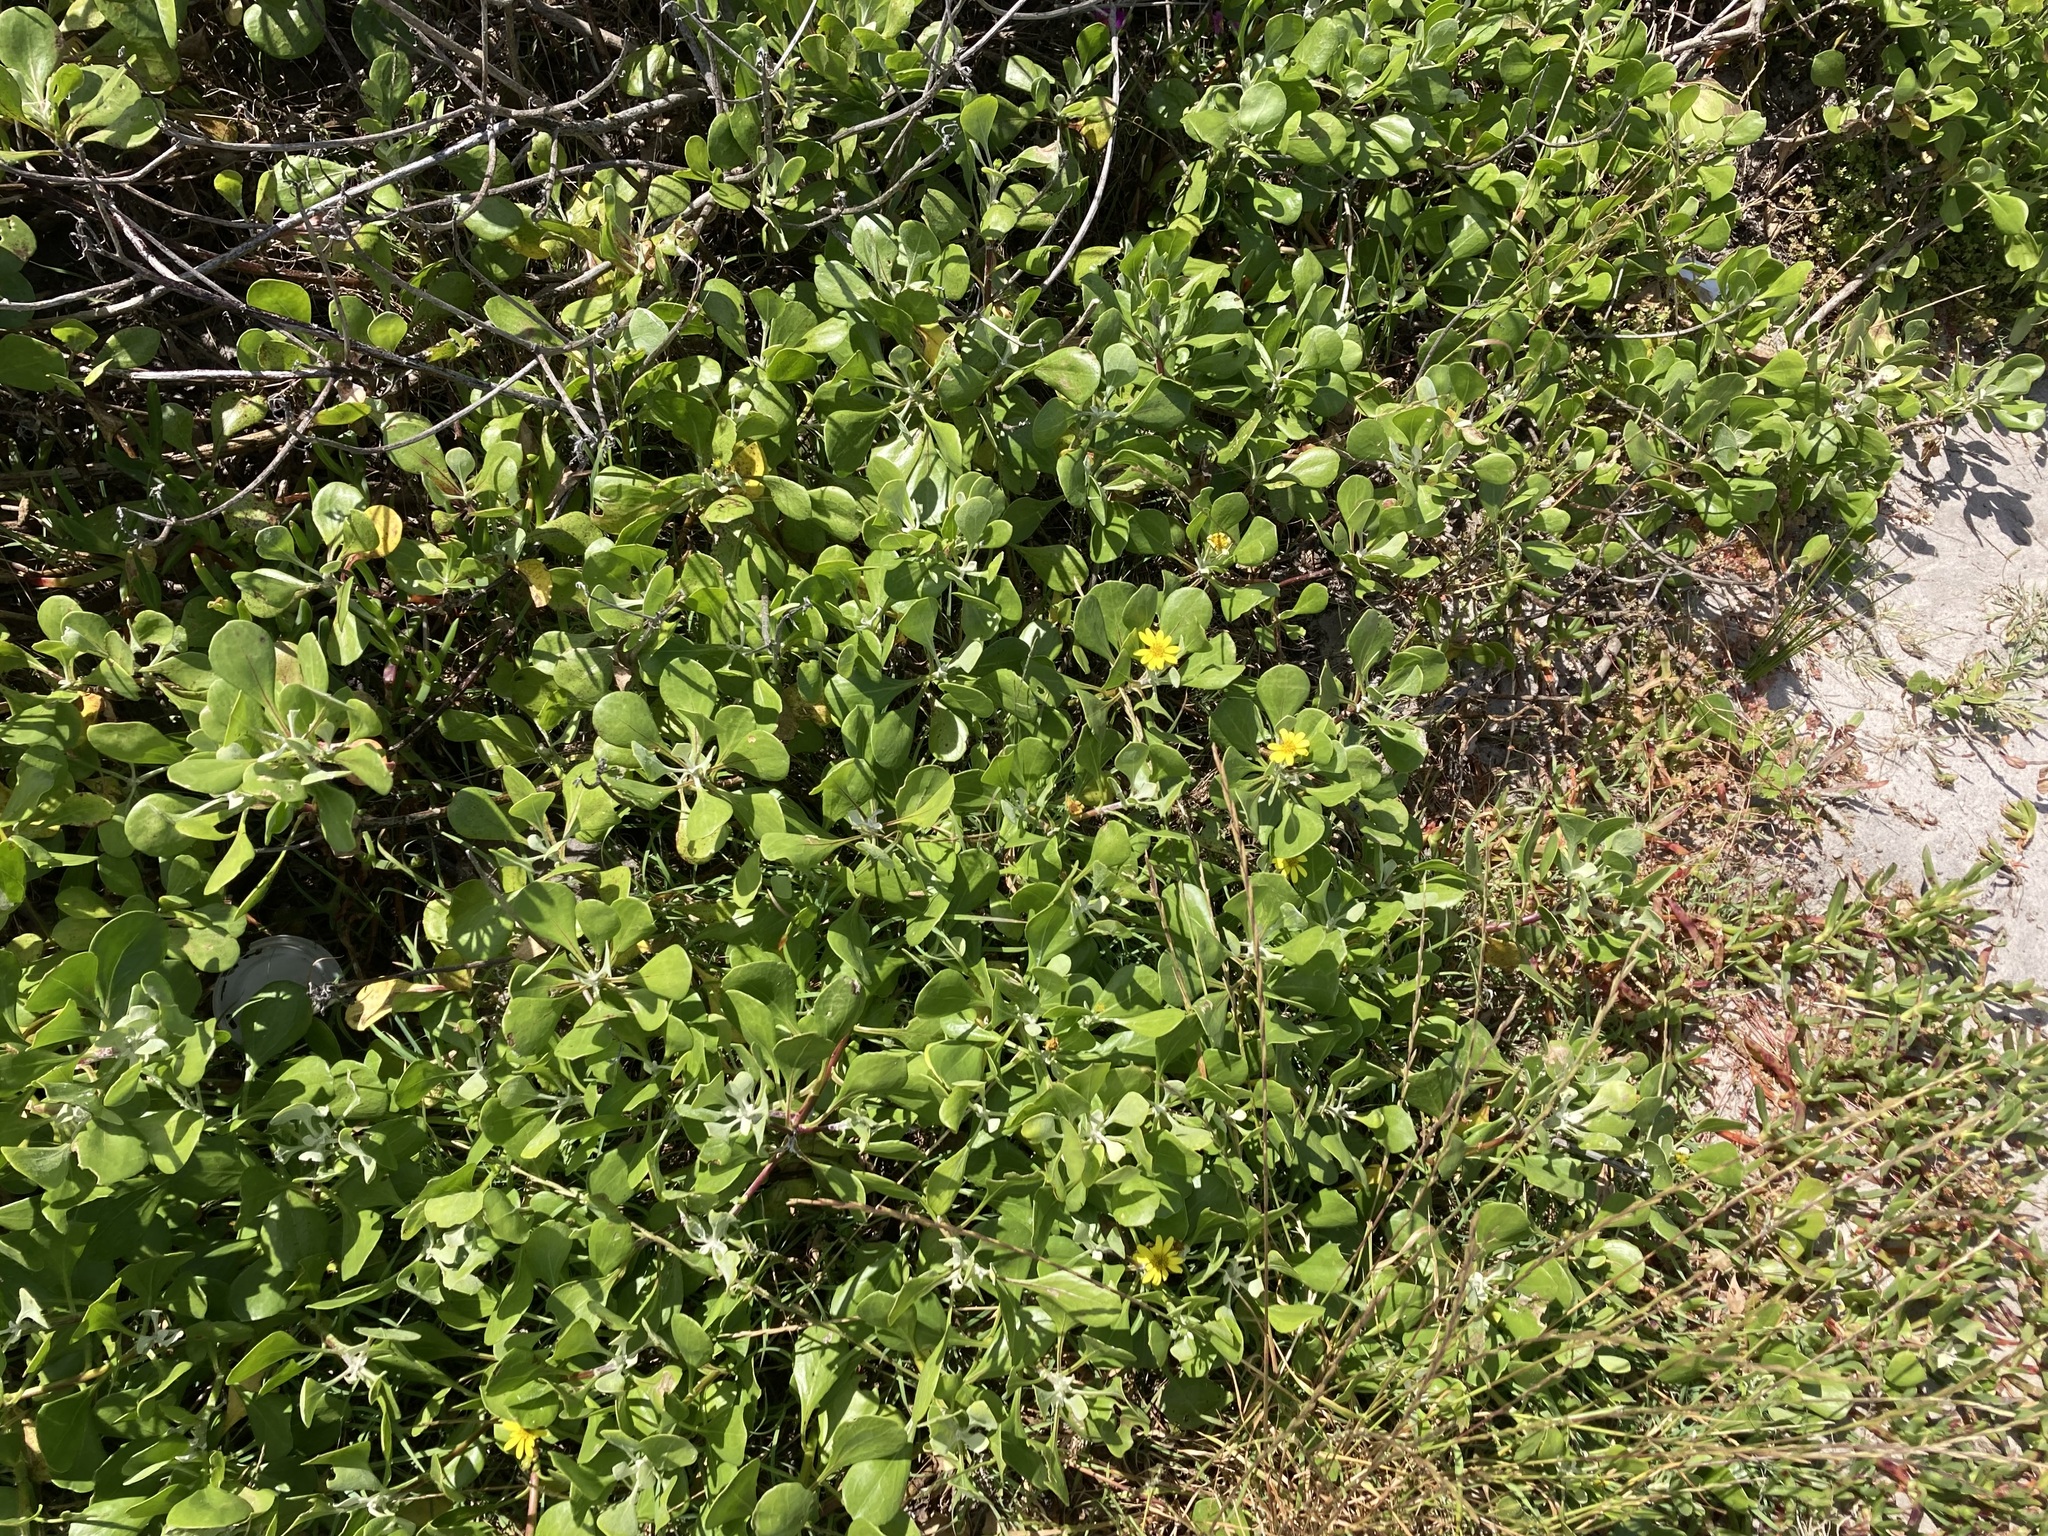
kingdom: Plantae
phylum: Tracheophyta
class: Magnoliopsida
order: Asterales
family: Asteraceae
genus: Osteospermum
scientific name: Osteospermum moniliferum
